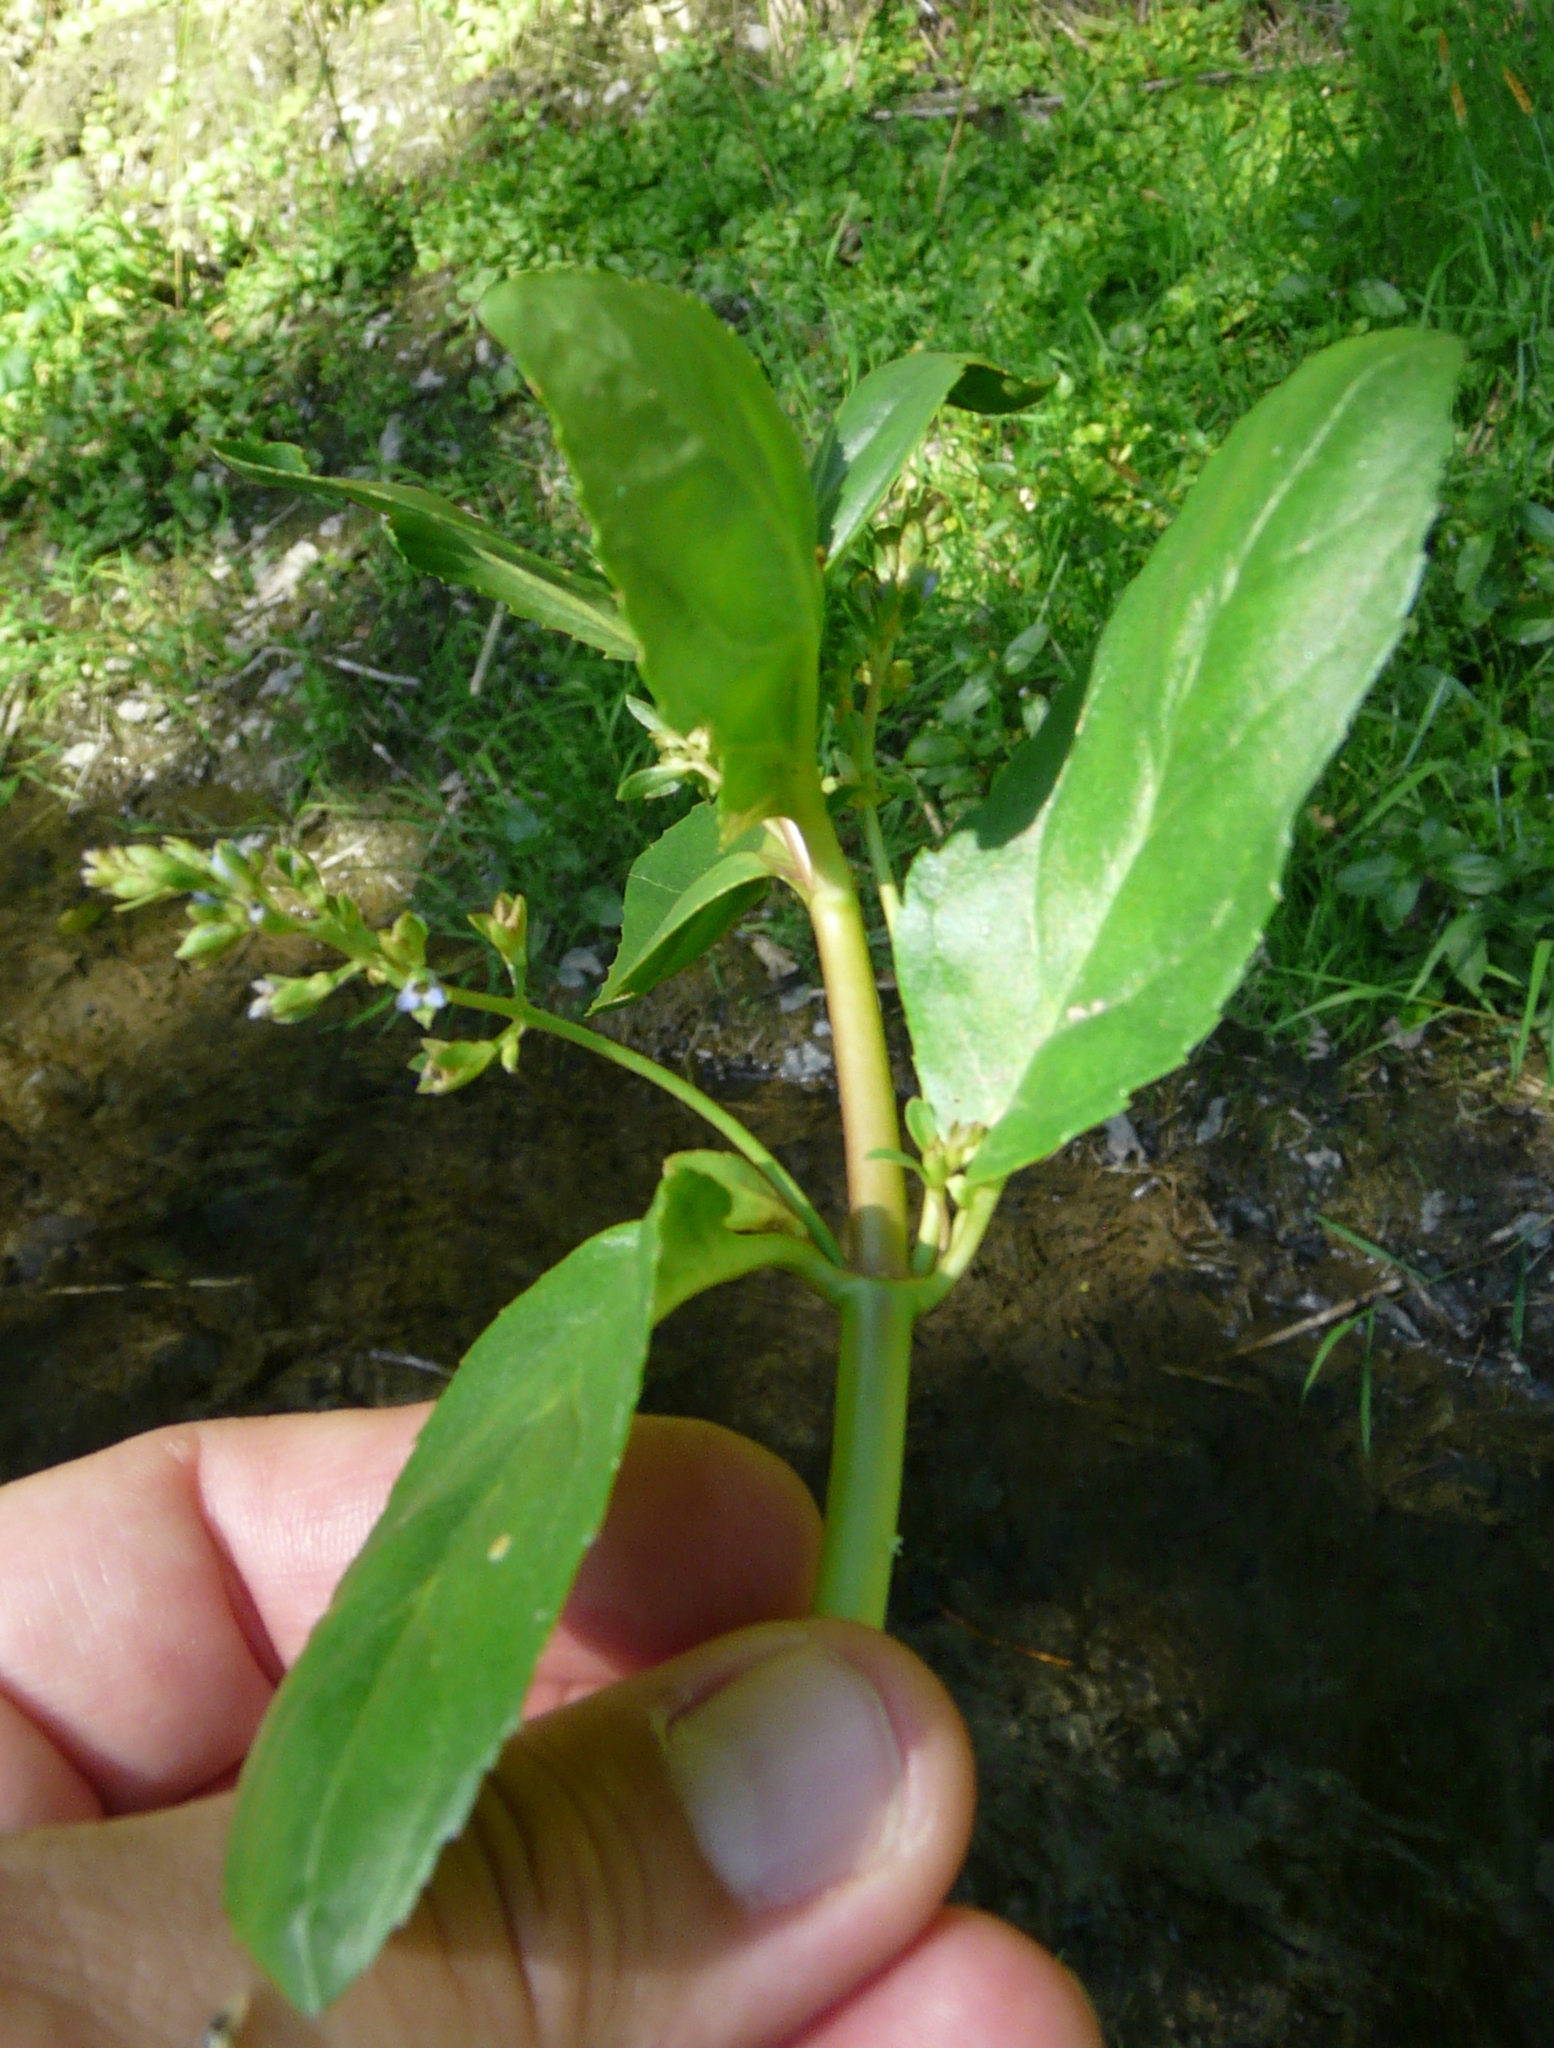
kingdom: Plantae
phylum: Tracheophyta
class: Magnoliopsida
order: Lamiales
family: Plantaginaceae
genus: Veronica
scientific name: Veronica beccabunga
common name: Brooklime
